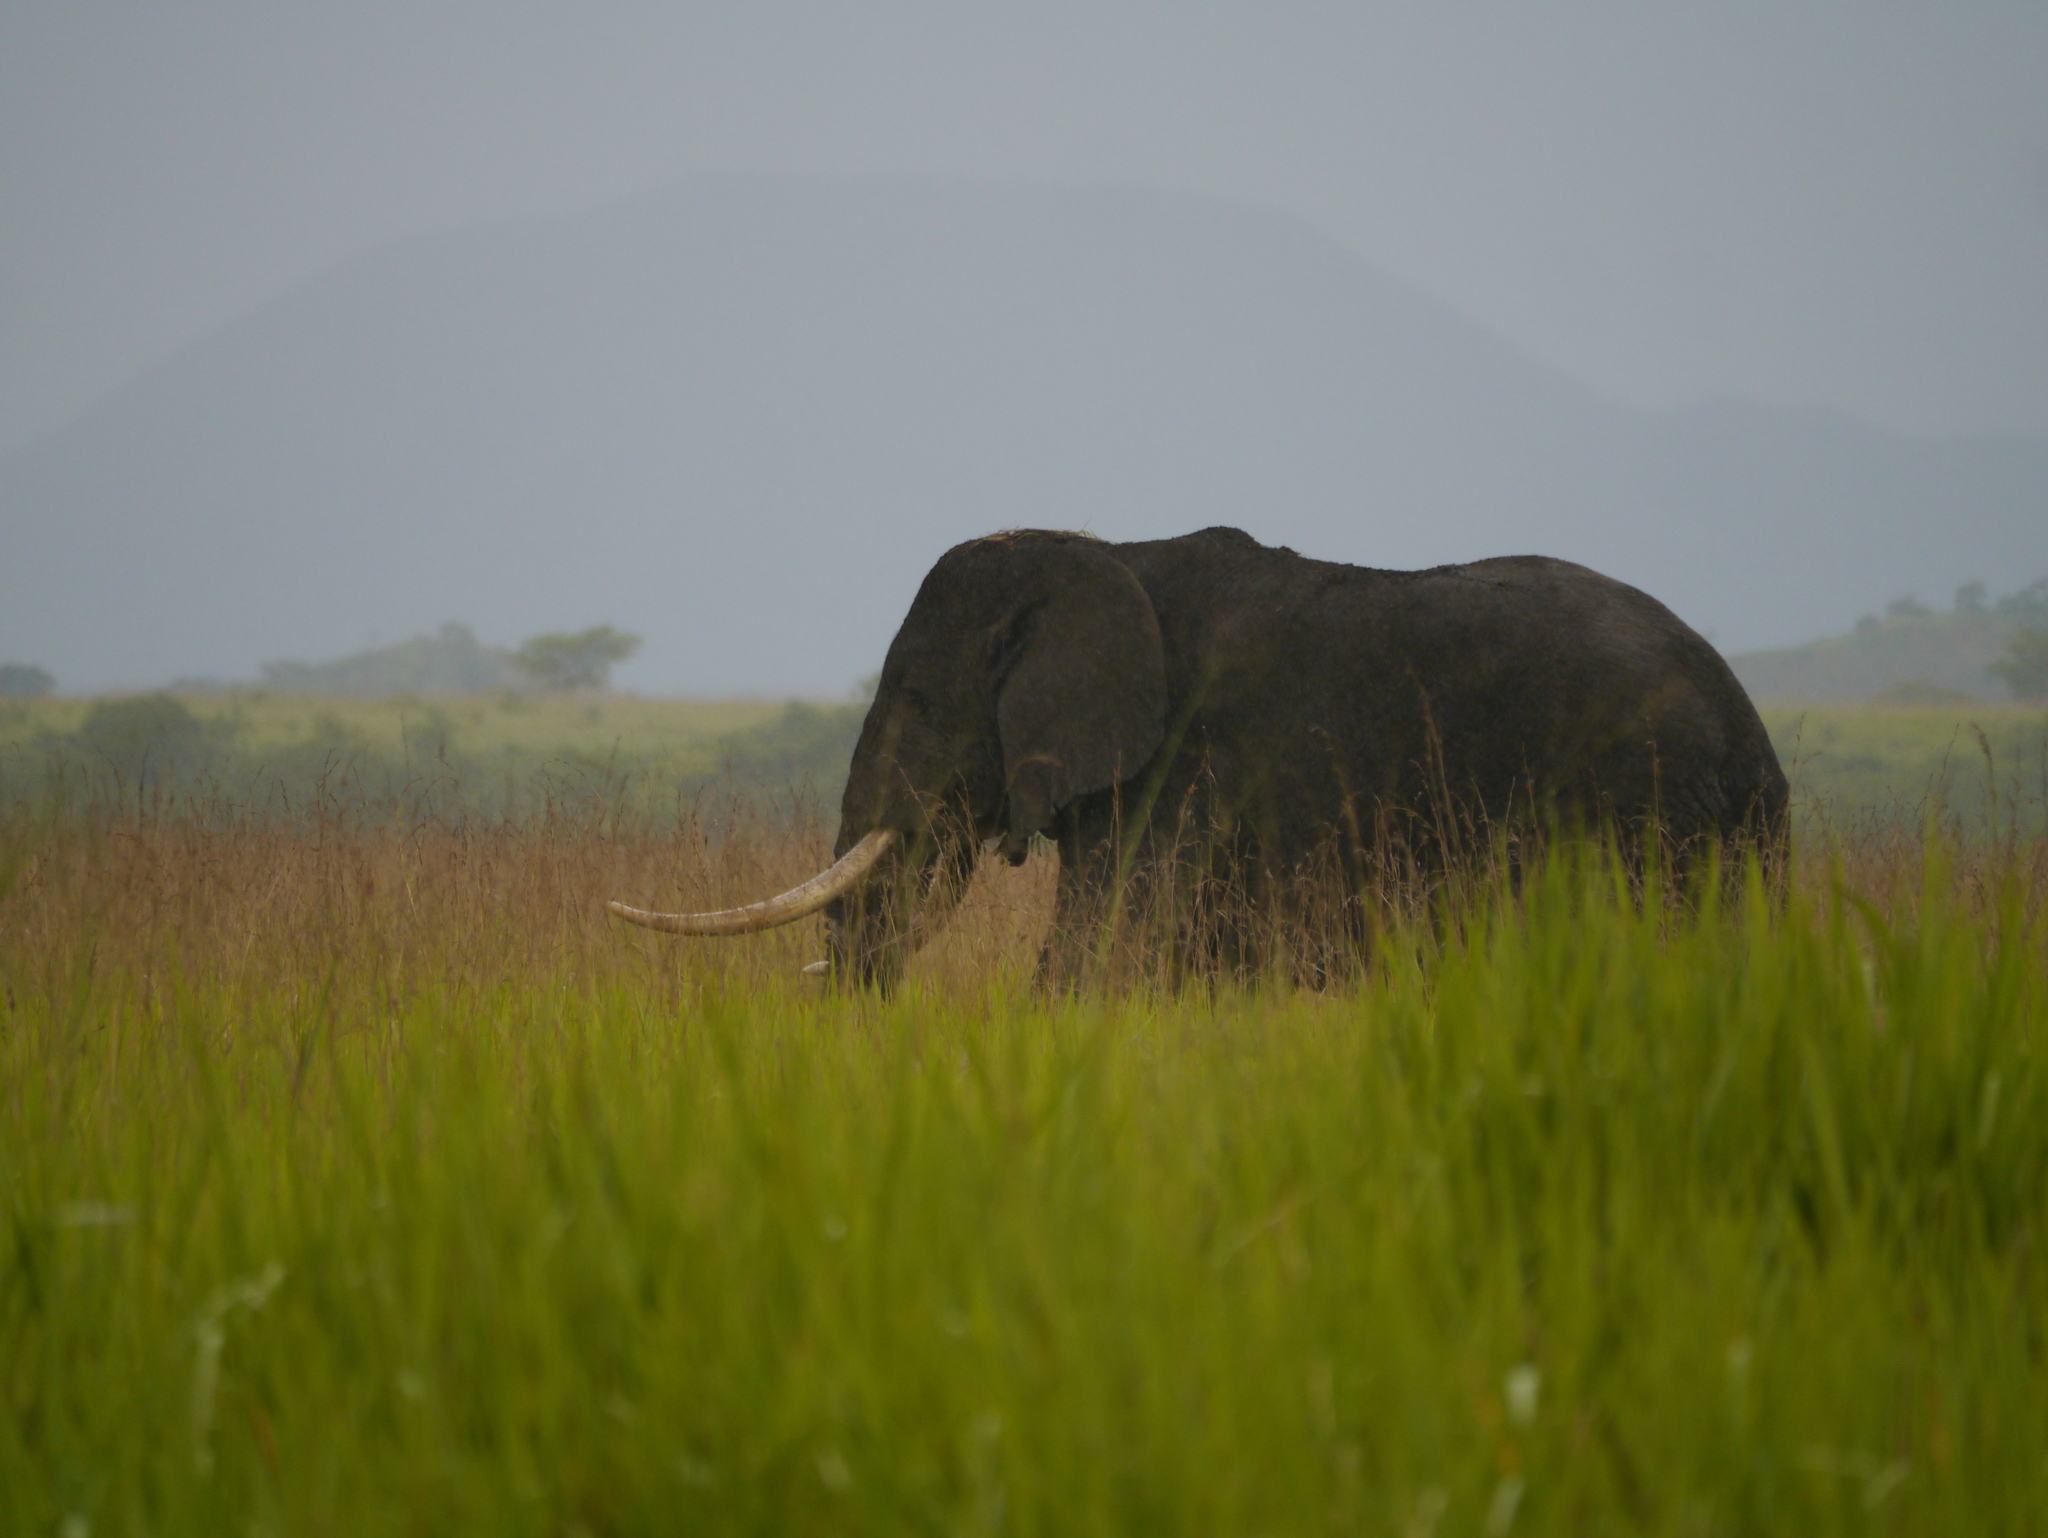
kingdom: Animalia
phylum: Chordata
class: Mammalia
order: Proboscidea
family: Elephantidae
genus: Loxodonta
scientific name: Loxodonta africana
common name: African elephant
